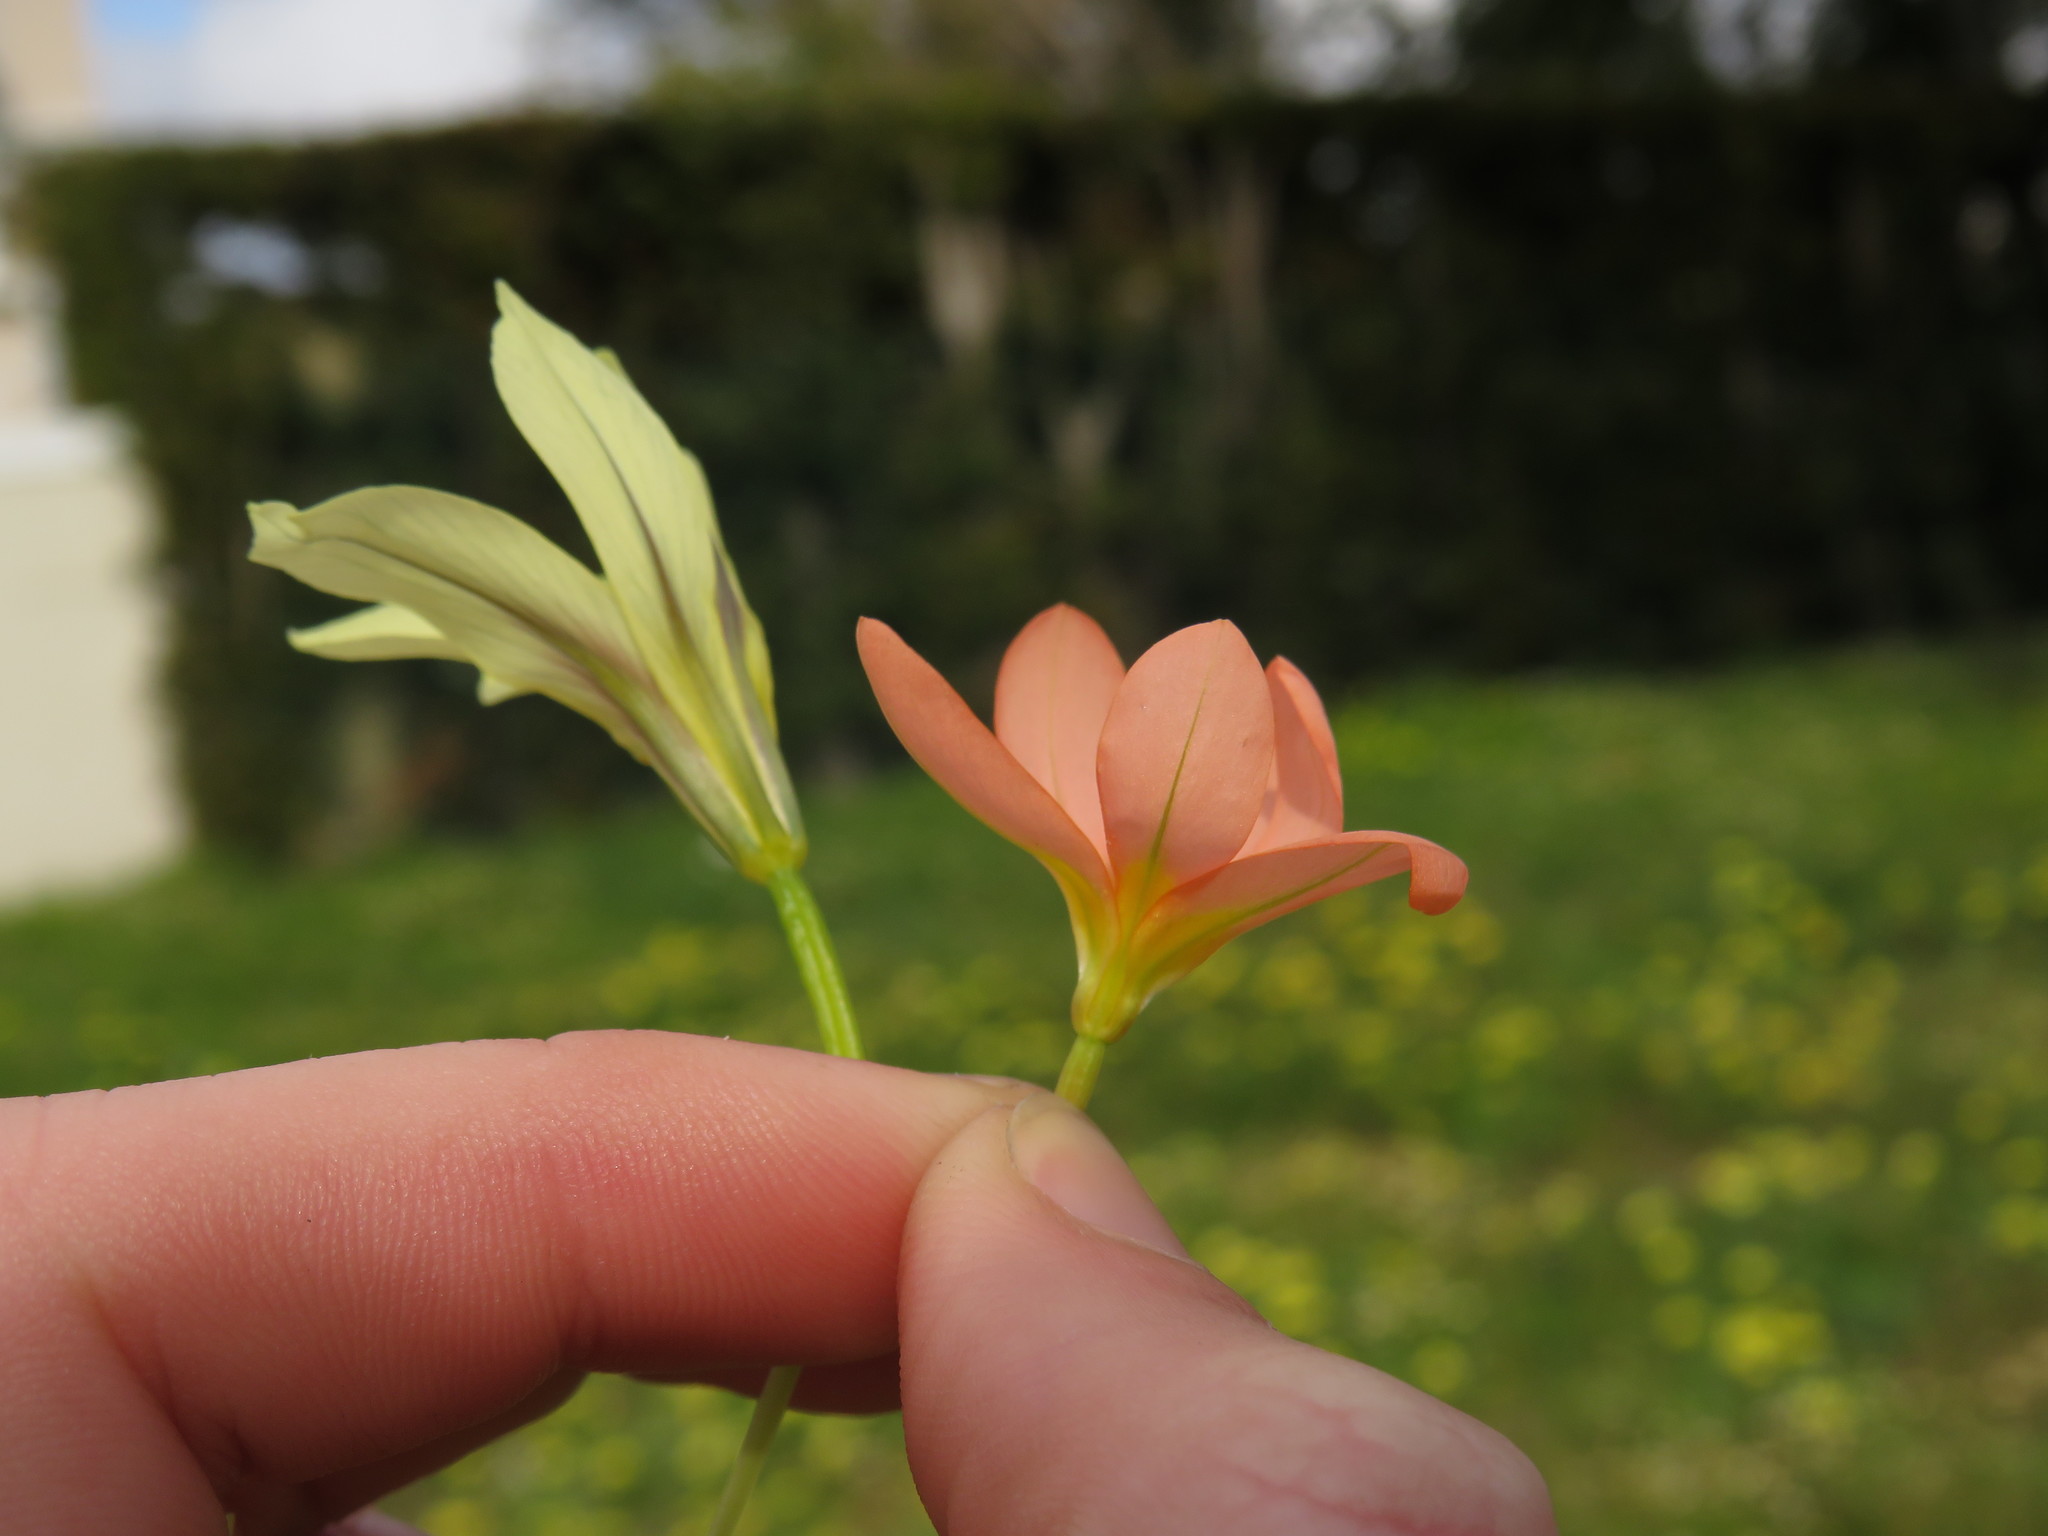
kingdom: Plantae
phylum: Tracheophyta
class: Liliopsida
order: Asparagales
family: Iridaceae
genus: Moraea
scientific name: Moraea miniata
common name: Two-leaf cape-tulip
